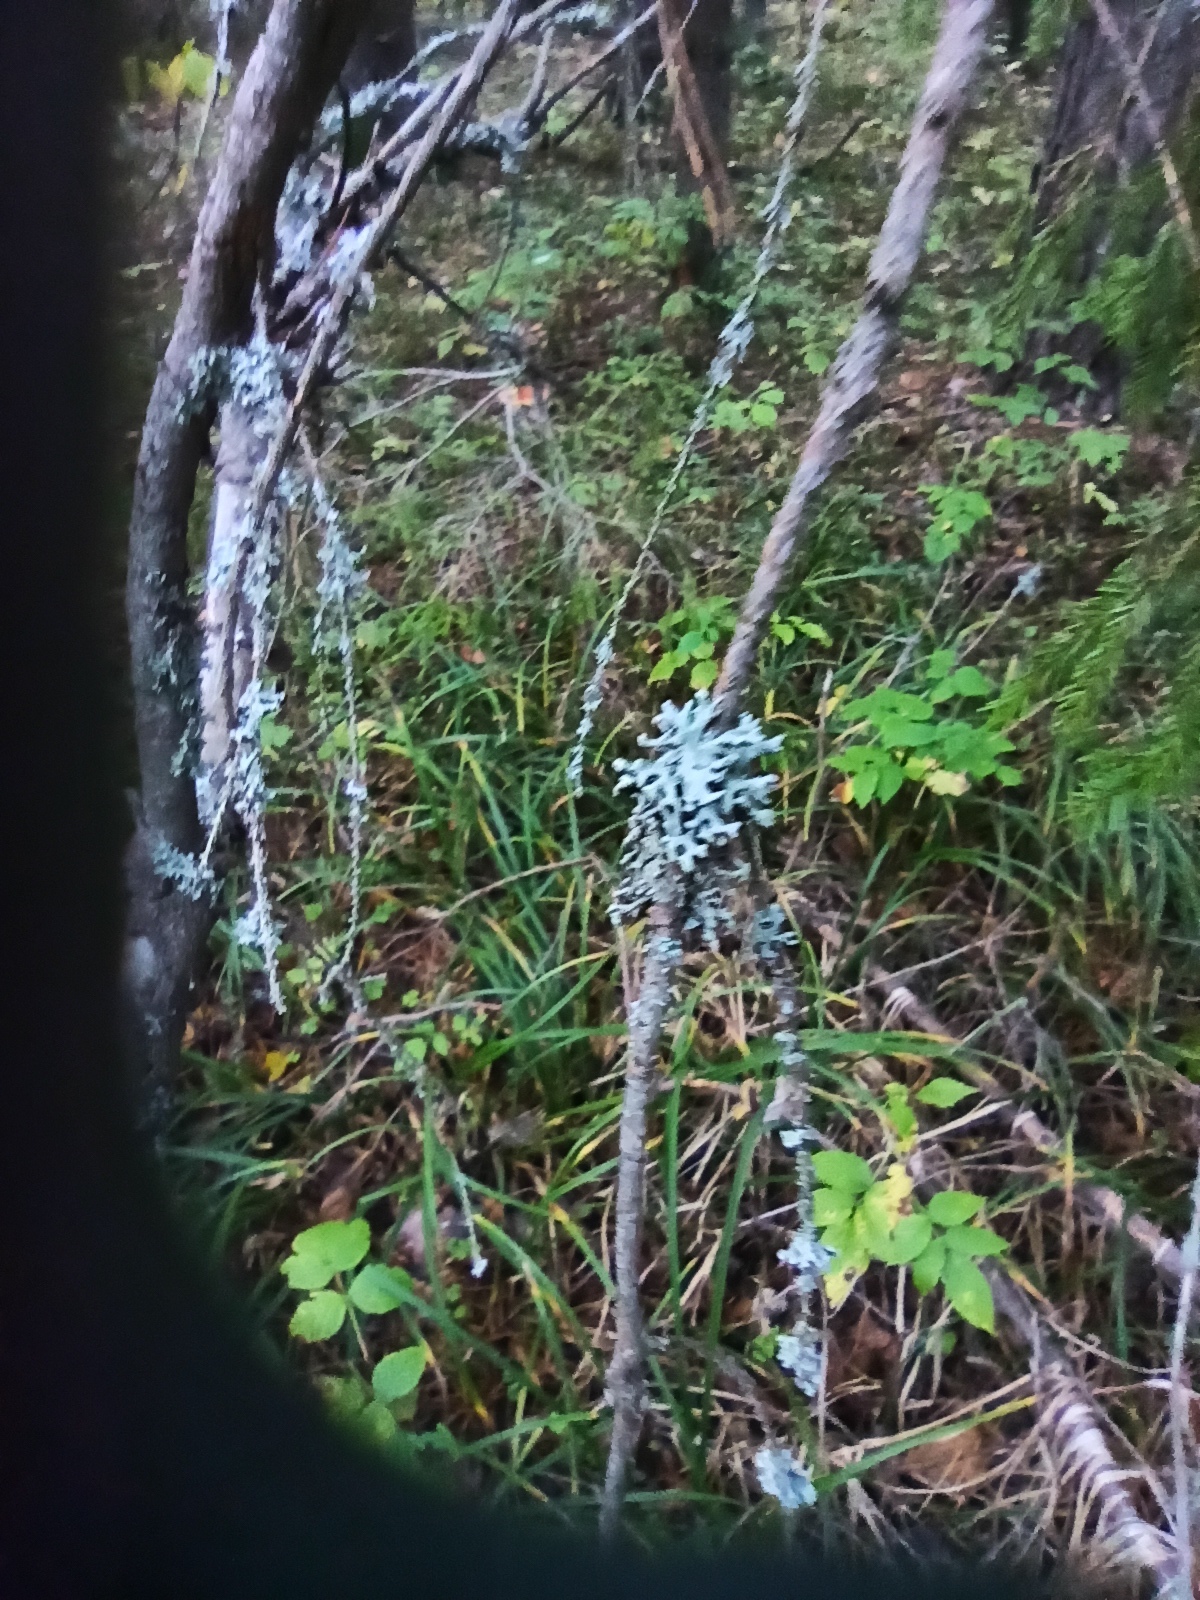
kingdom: Fungi
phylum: Ascomycota
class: Lecanoromycetes
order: Lecanorales
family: Parmeliaceae
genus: Hypogymnia
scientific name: Hypogymnia physodes
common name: Dark crottle
